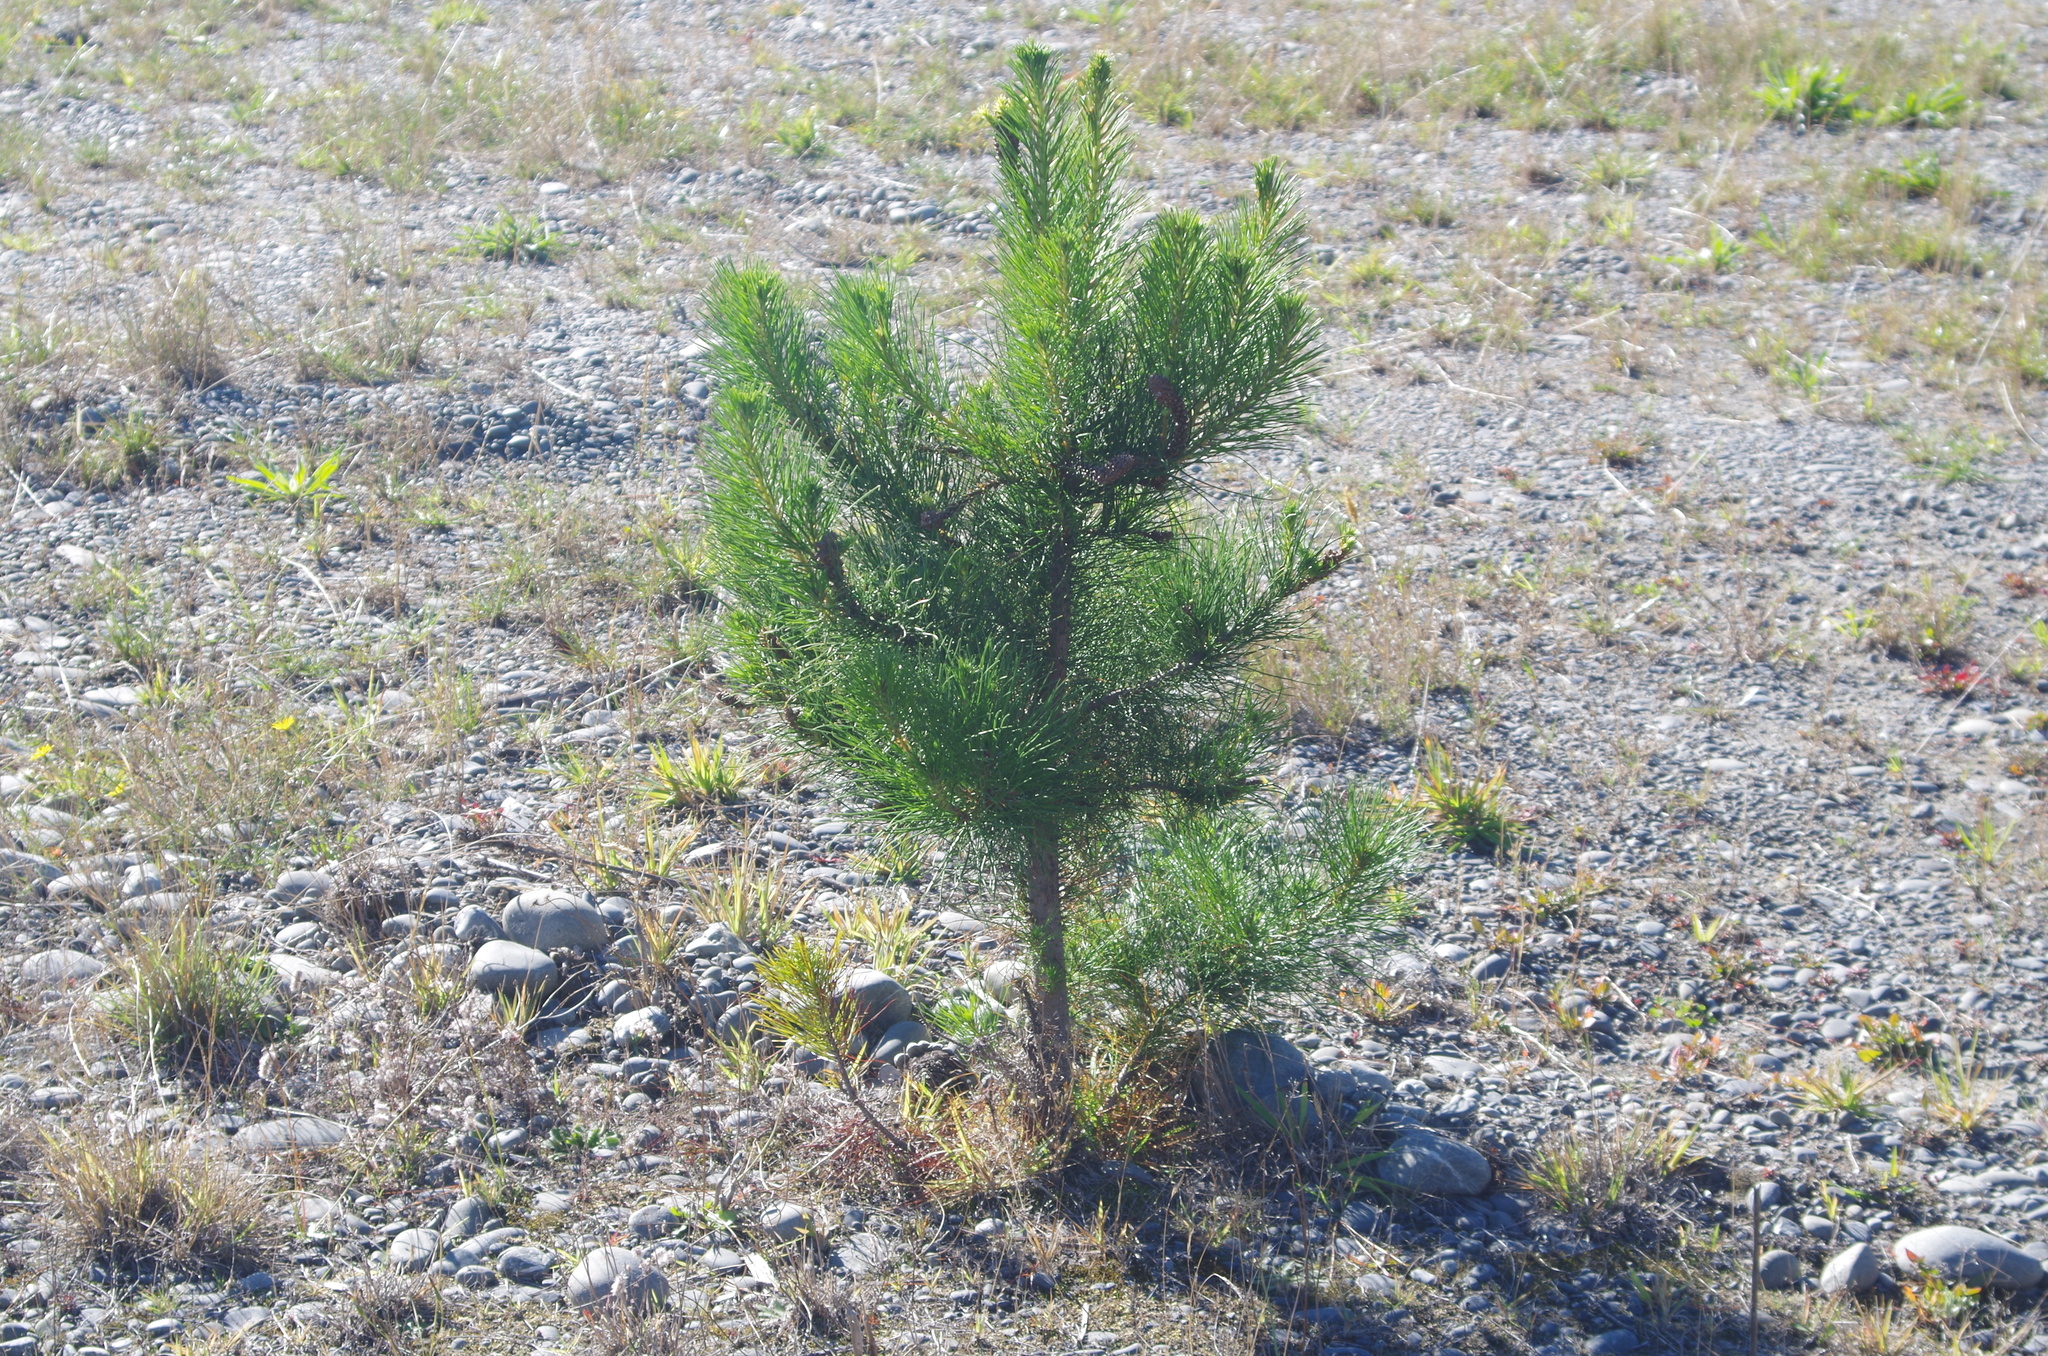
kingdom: Plantae
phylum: Tracheophyta
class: Pinopsida
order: Pinales
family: Pinaceae
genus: Pinus
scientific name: Pinus radiata
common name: Monterey pine
